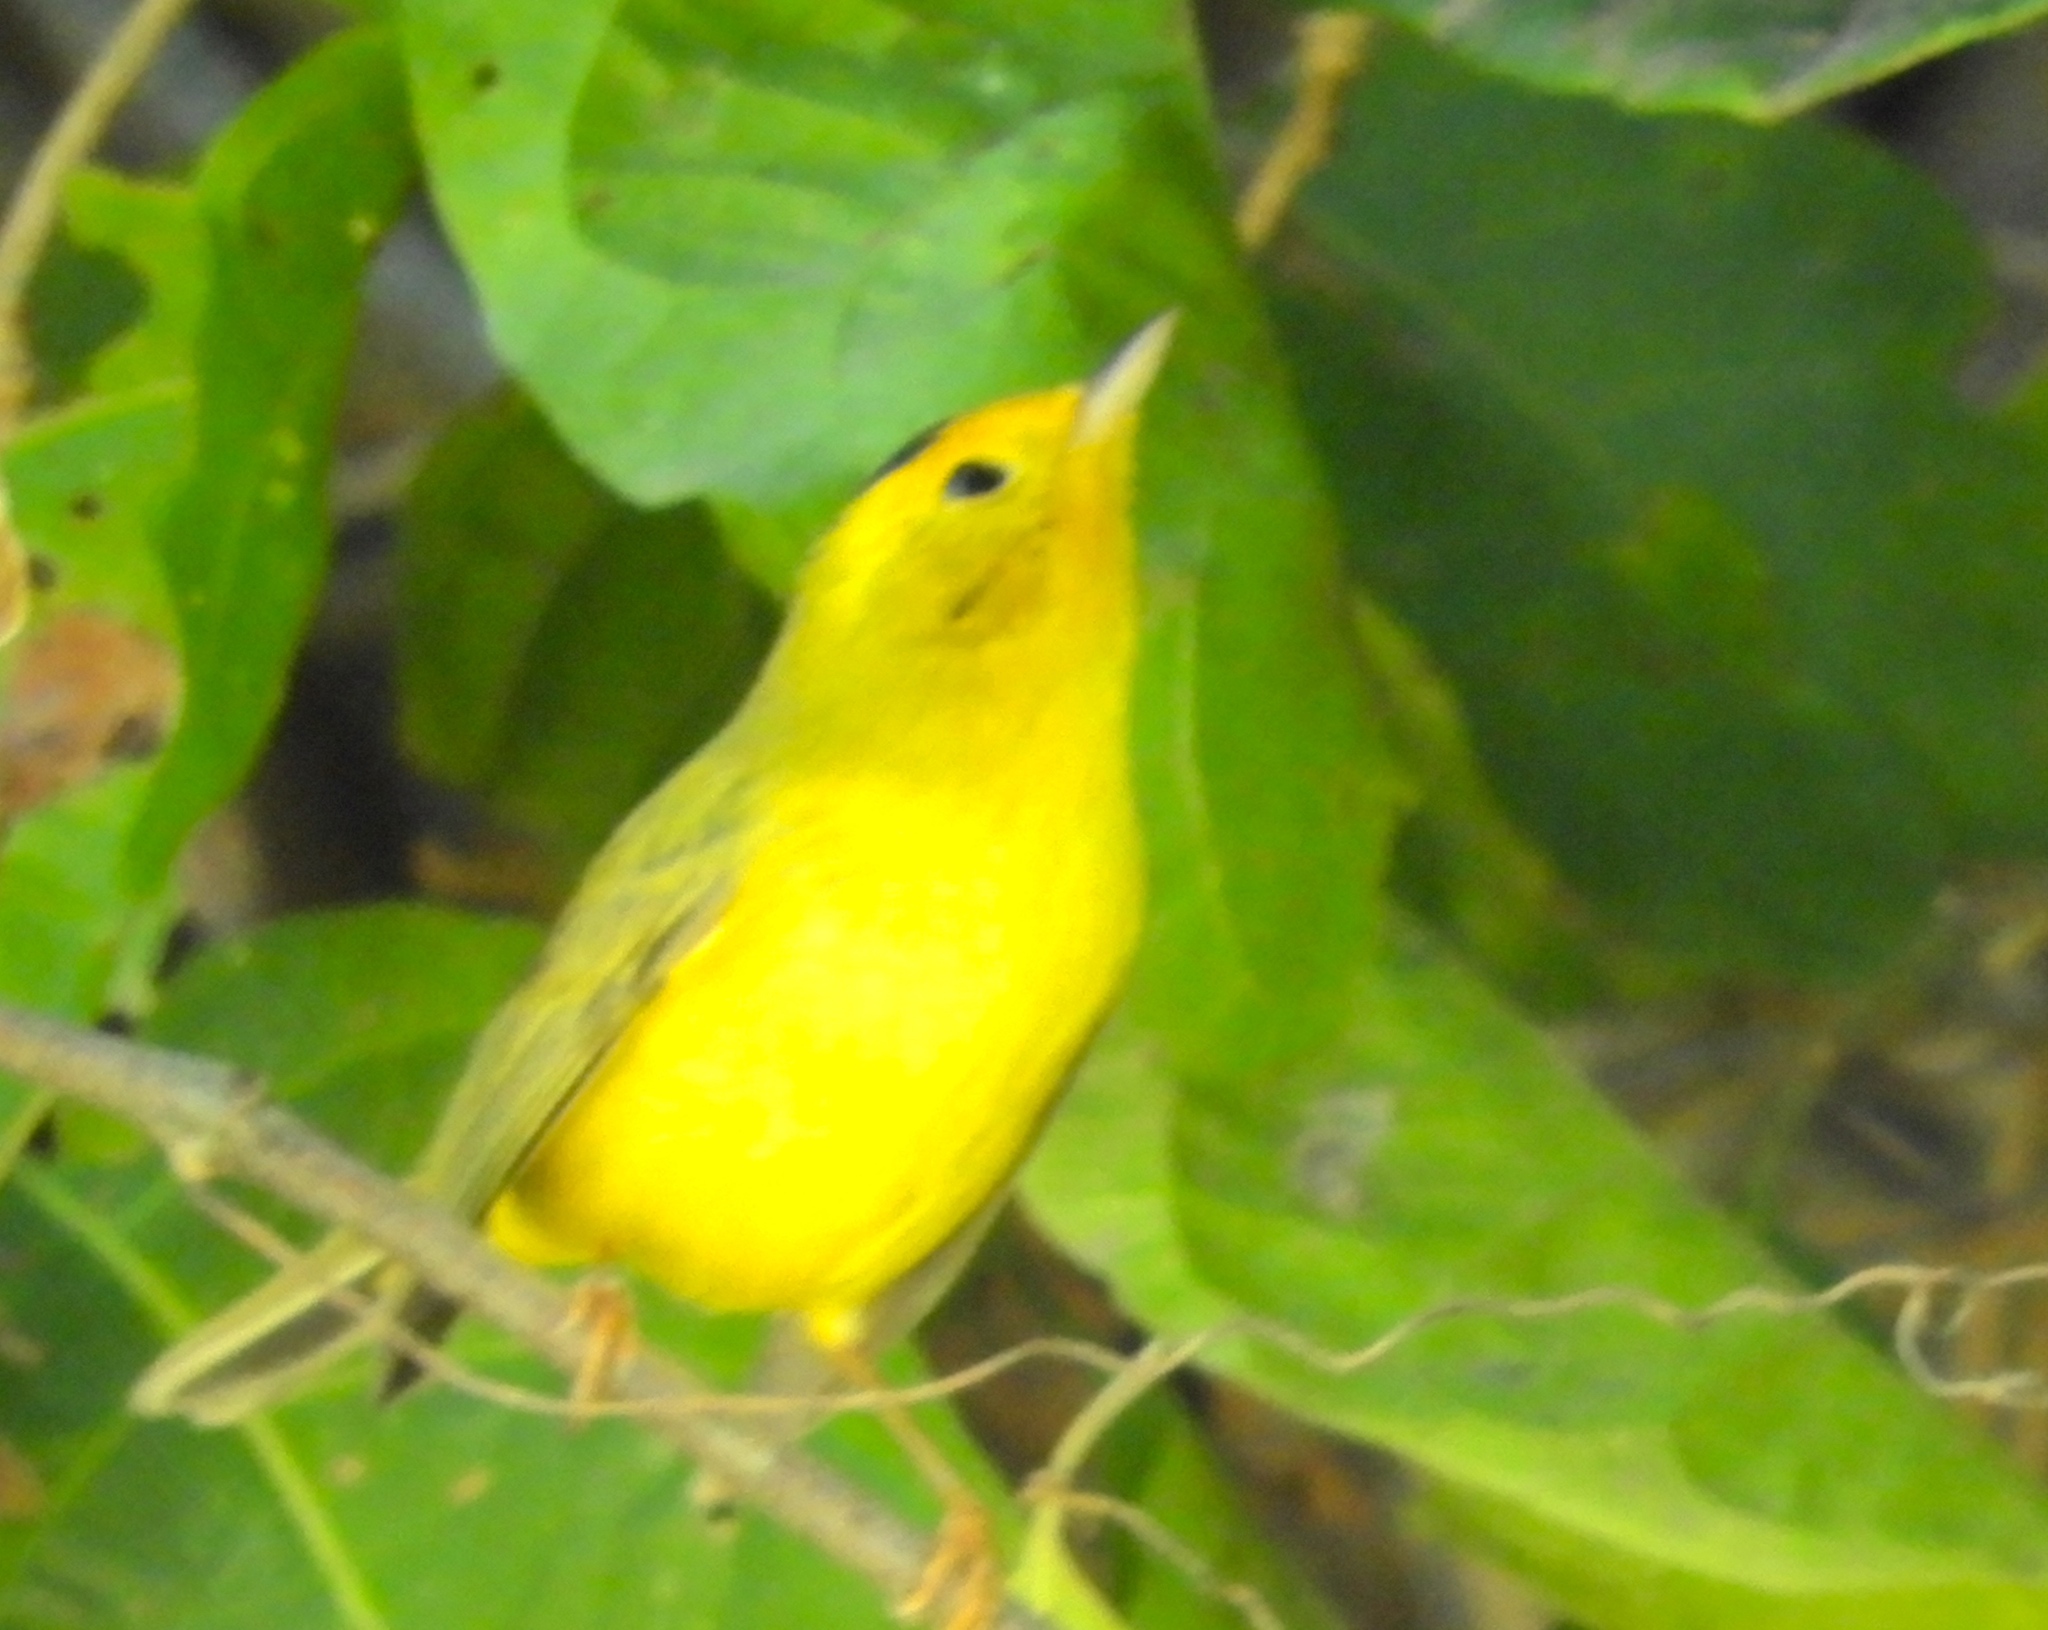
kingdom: Animalia
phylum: Chordata
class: Aves
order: Passeriformes
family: Parulidae
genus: Cardellina
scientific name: Cardellina pusilla
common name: Wilson's warbler
